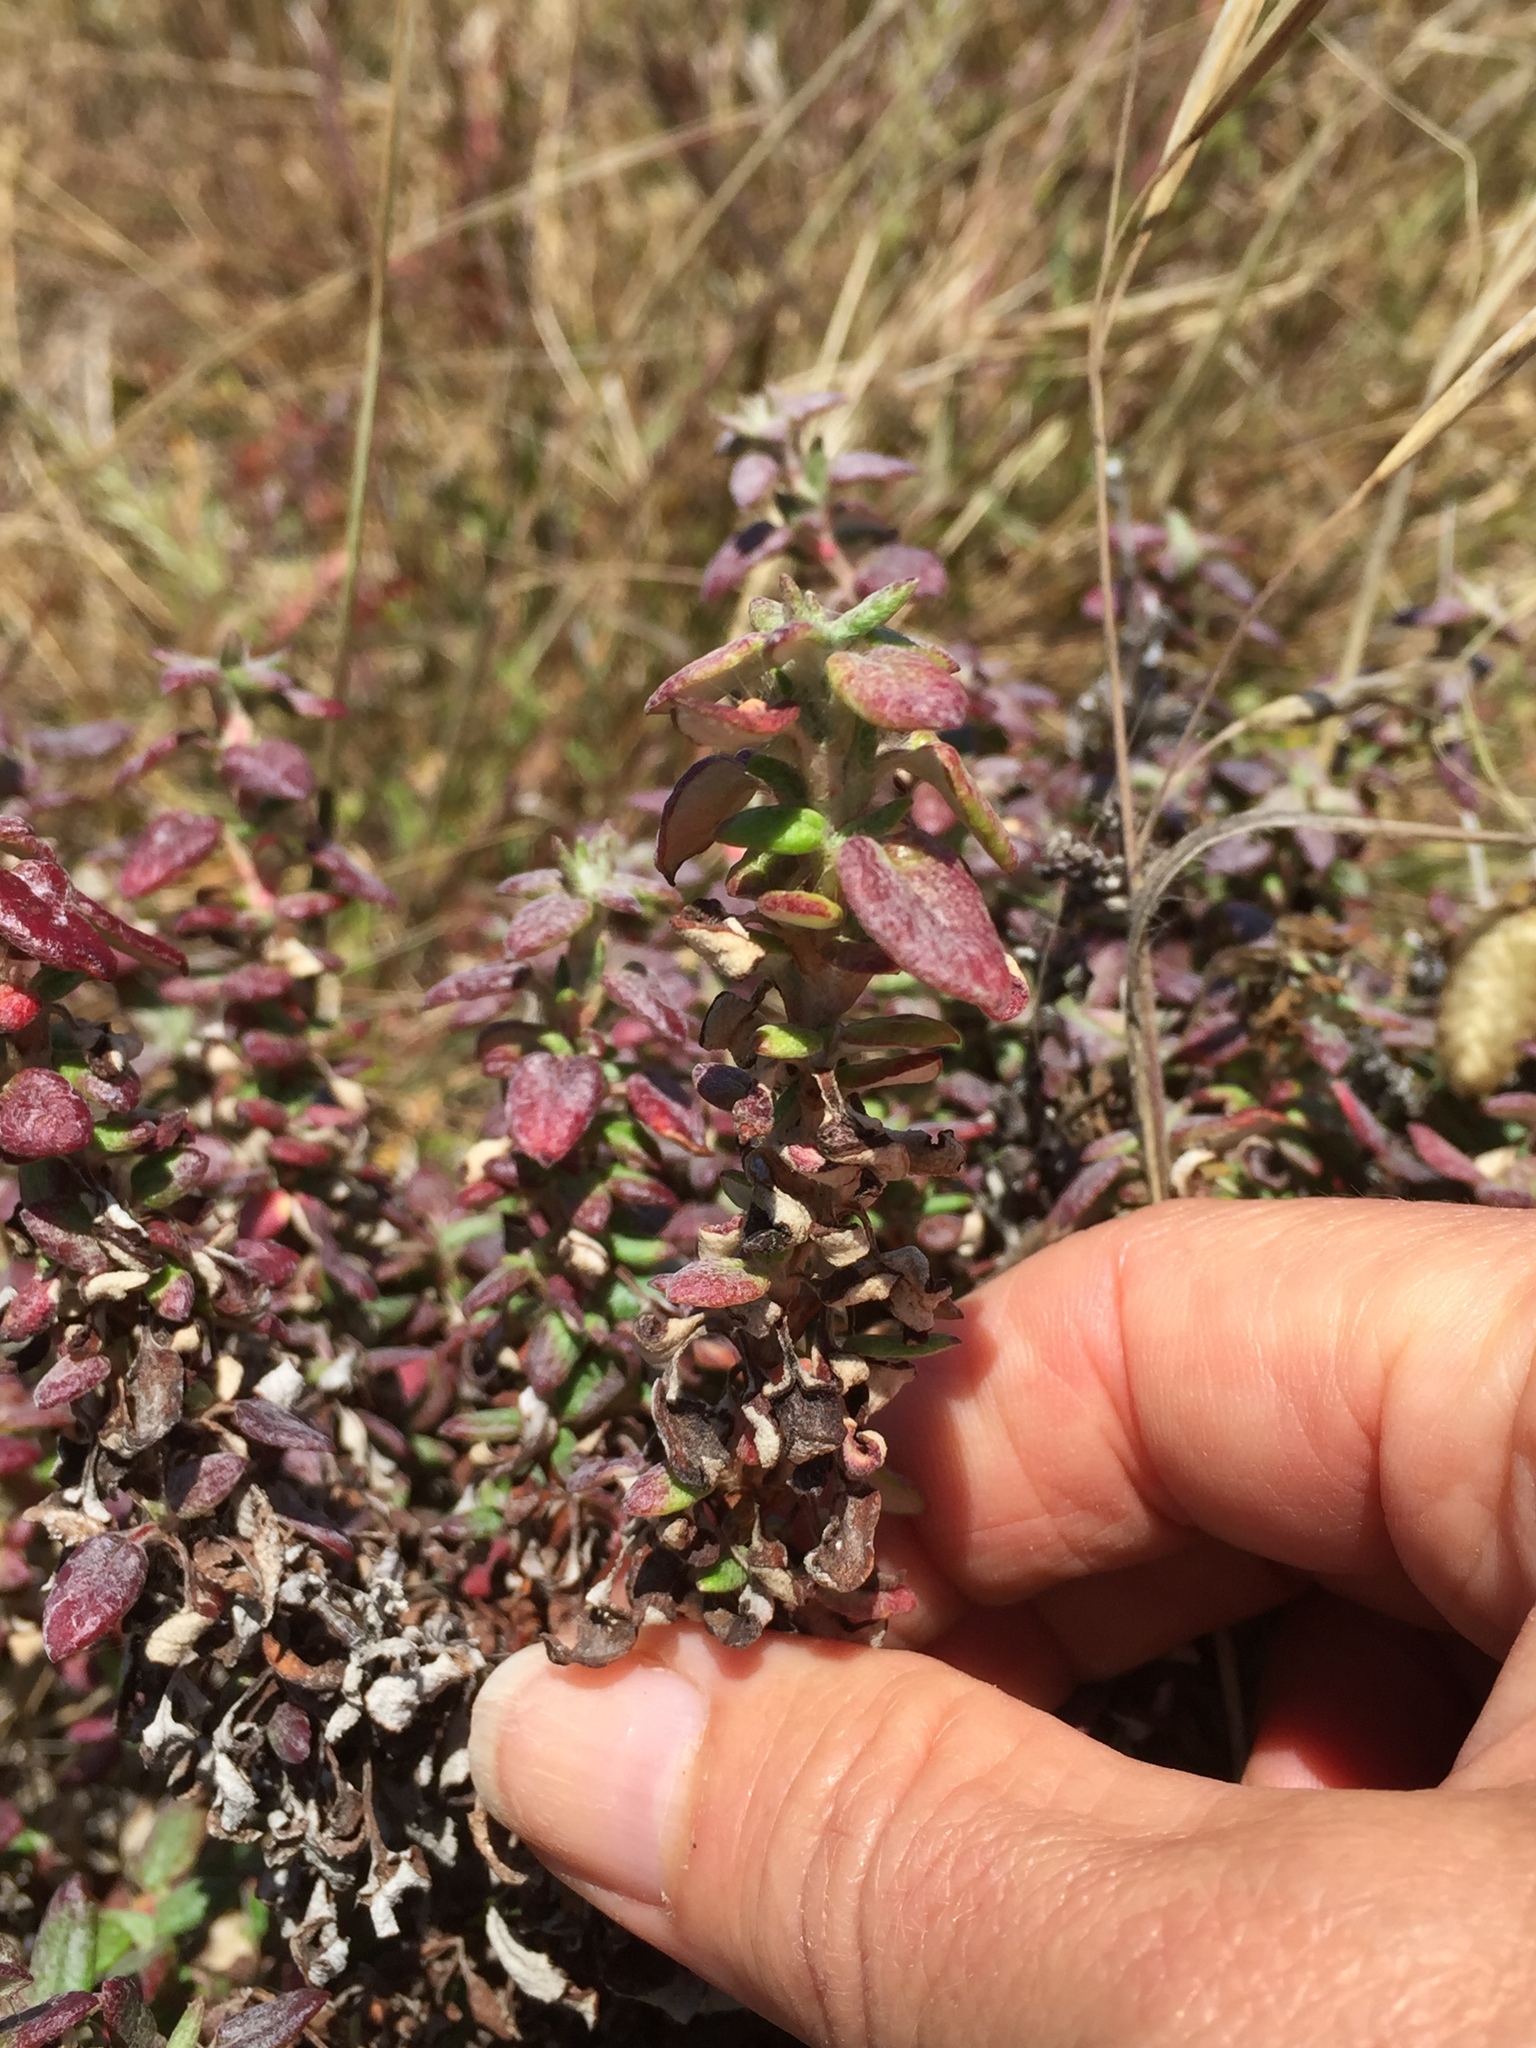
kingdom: Plantae
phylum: Tracheophyta
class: Magnoliopsida
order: Caryophyllales
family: Polygonaceae
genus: Eriogonum
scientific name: Eriogonum parvifolium
